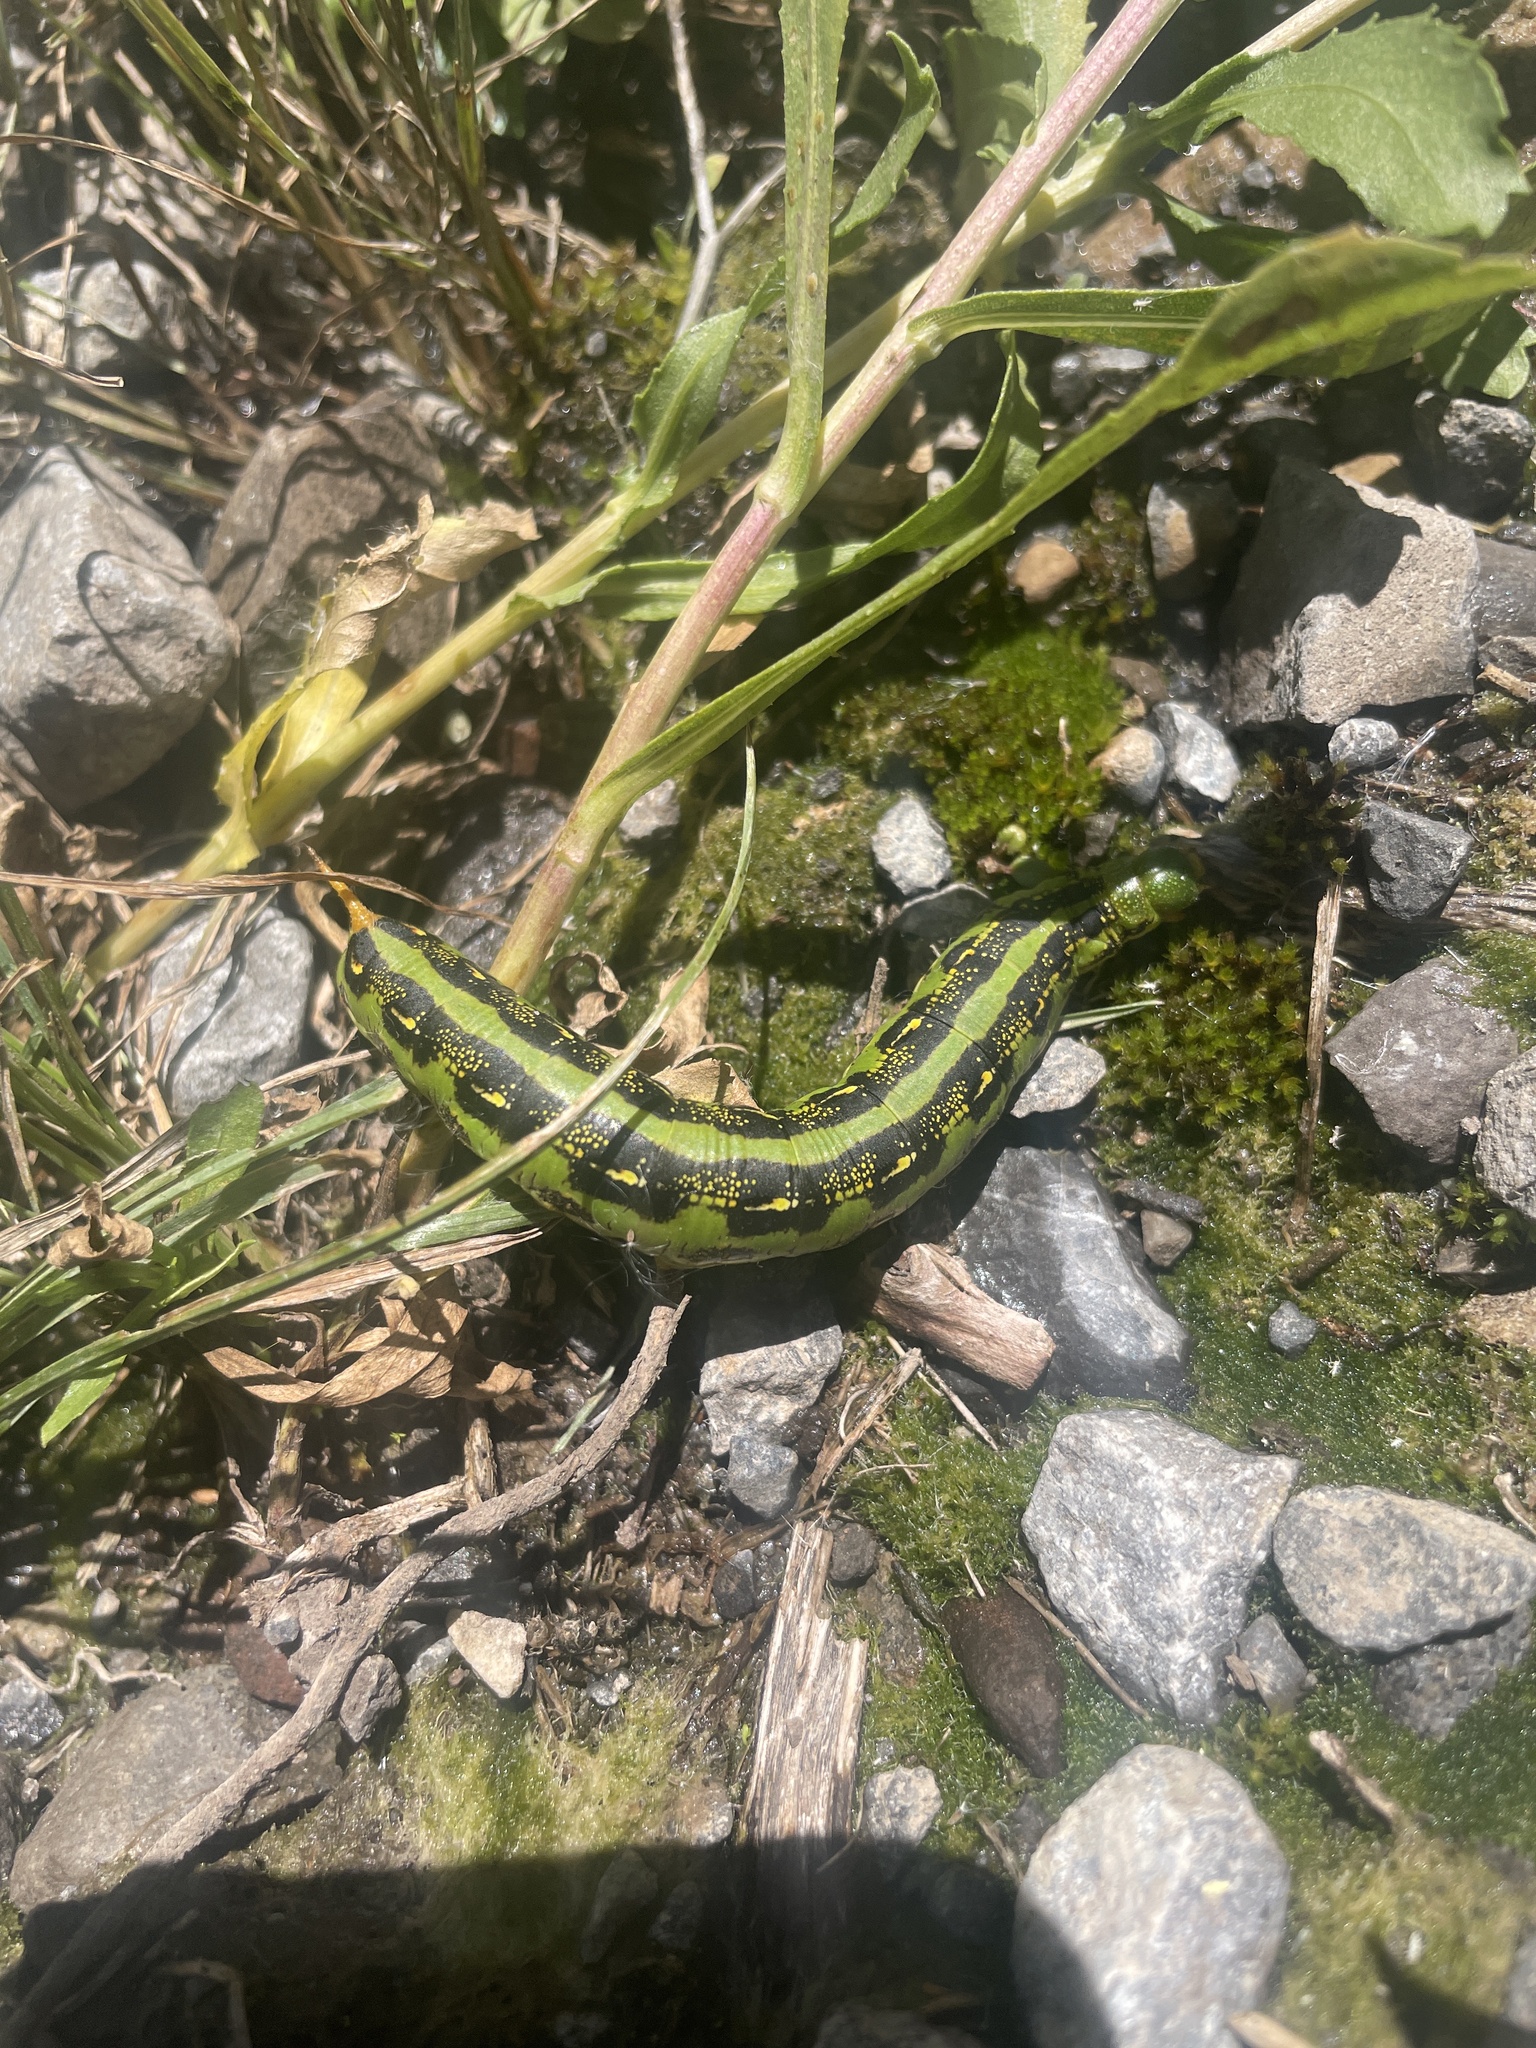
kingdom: Animalia
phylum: Arthropoda
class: Insecta
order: Lepidoptera
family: Sphingidae
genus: Hyles
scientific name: Hyles lineata
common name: White-lined sphinx
